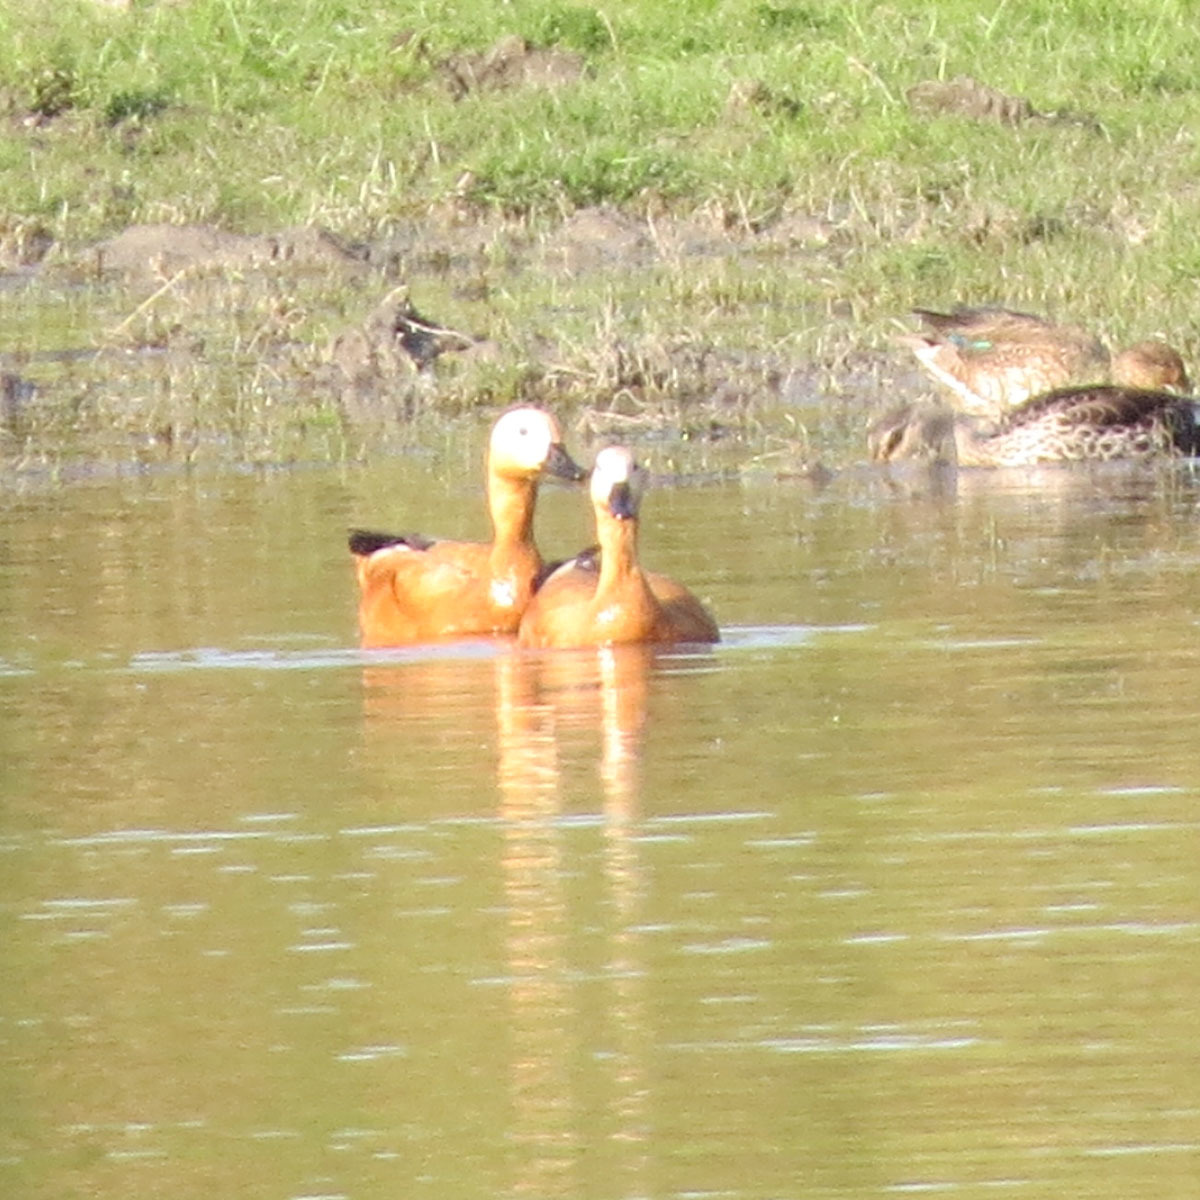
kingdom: Animalia
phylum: Chordata
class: Aves
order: Anseriformes
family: Anatidae
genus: Tadorna
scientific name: Tadorna ferruginea
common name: Ruddy shelduck
